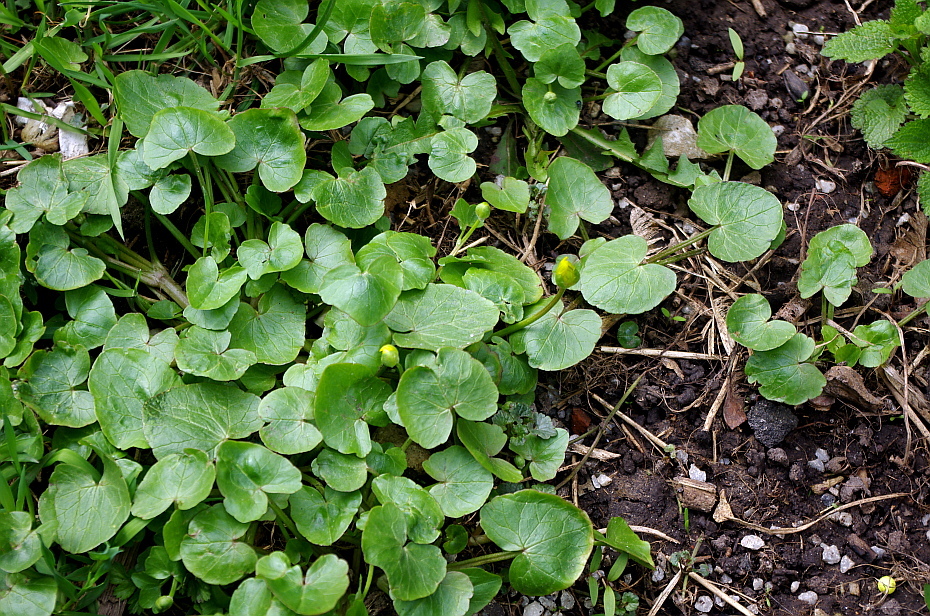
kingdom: Plantae
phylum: Tracheophyta
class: Magnoliopsida
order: Ranunculales
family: Ranunculaceae
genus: Ficaria
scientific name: Ficaria verna
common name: Lesser celandine
